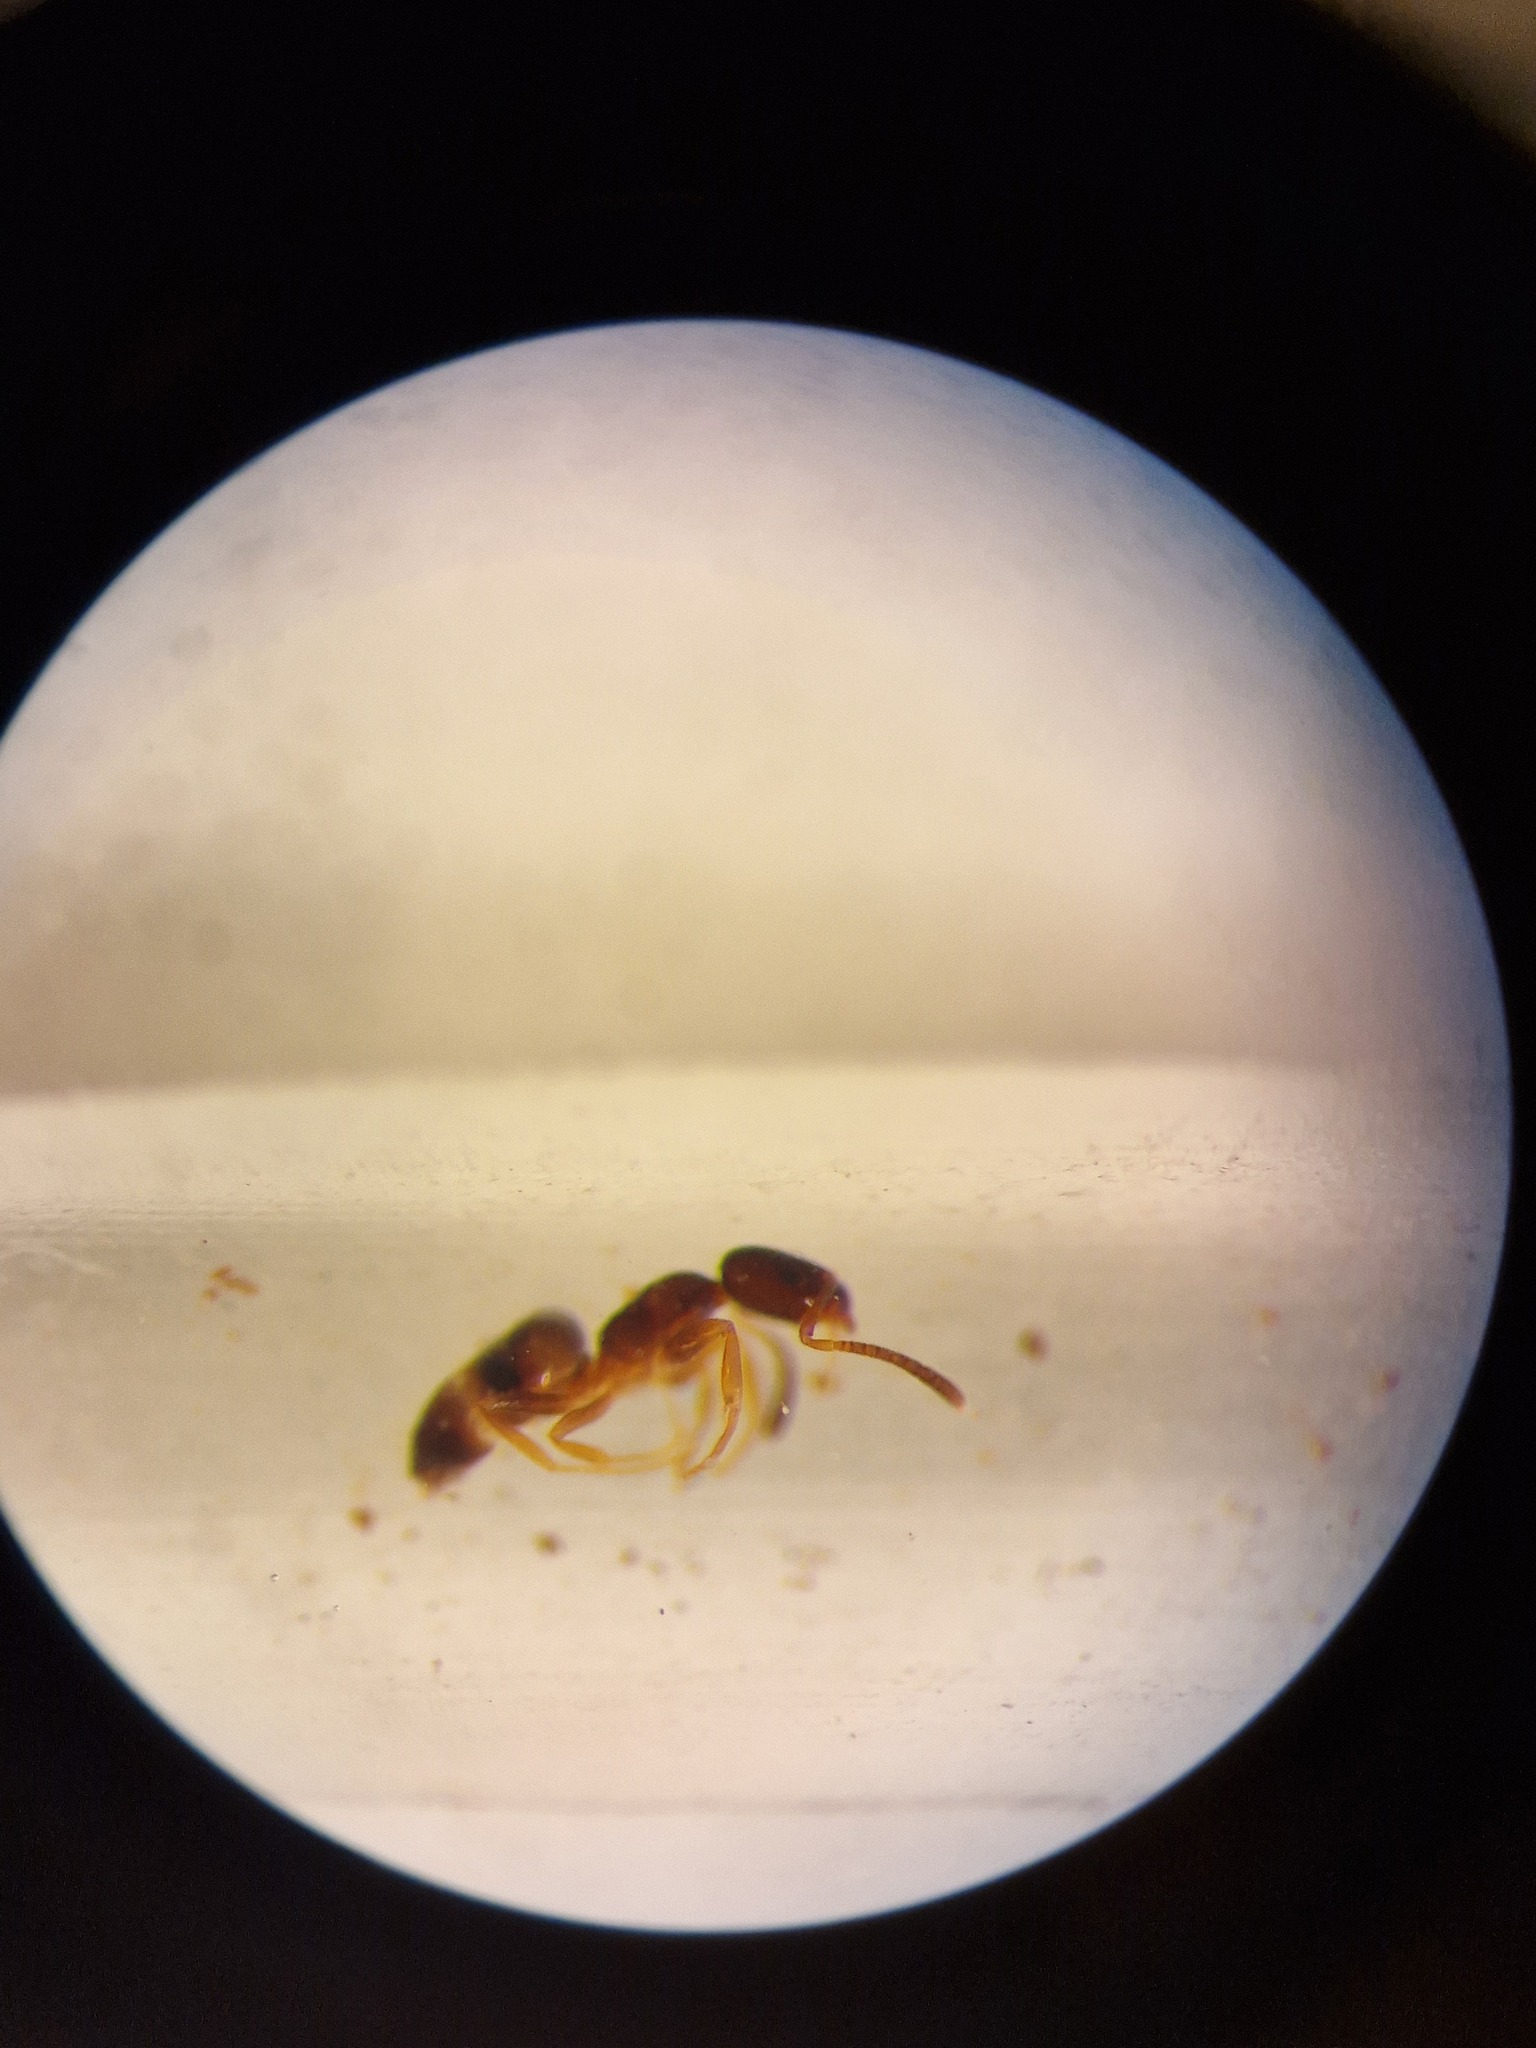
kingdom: Animalia
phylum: Arthropoda
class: Insecta
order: Hymenoptera
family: Formicidae
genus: Plagiolepis
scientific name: Plagiolepis pygmaea
